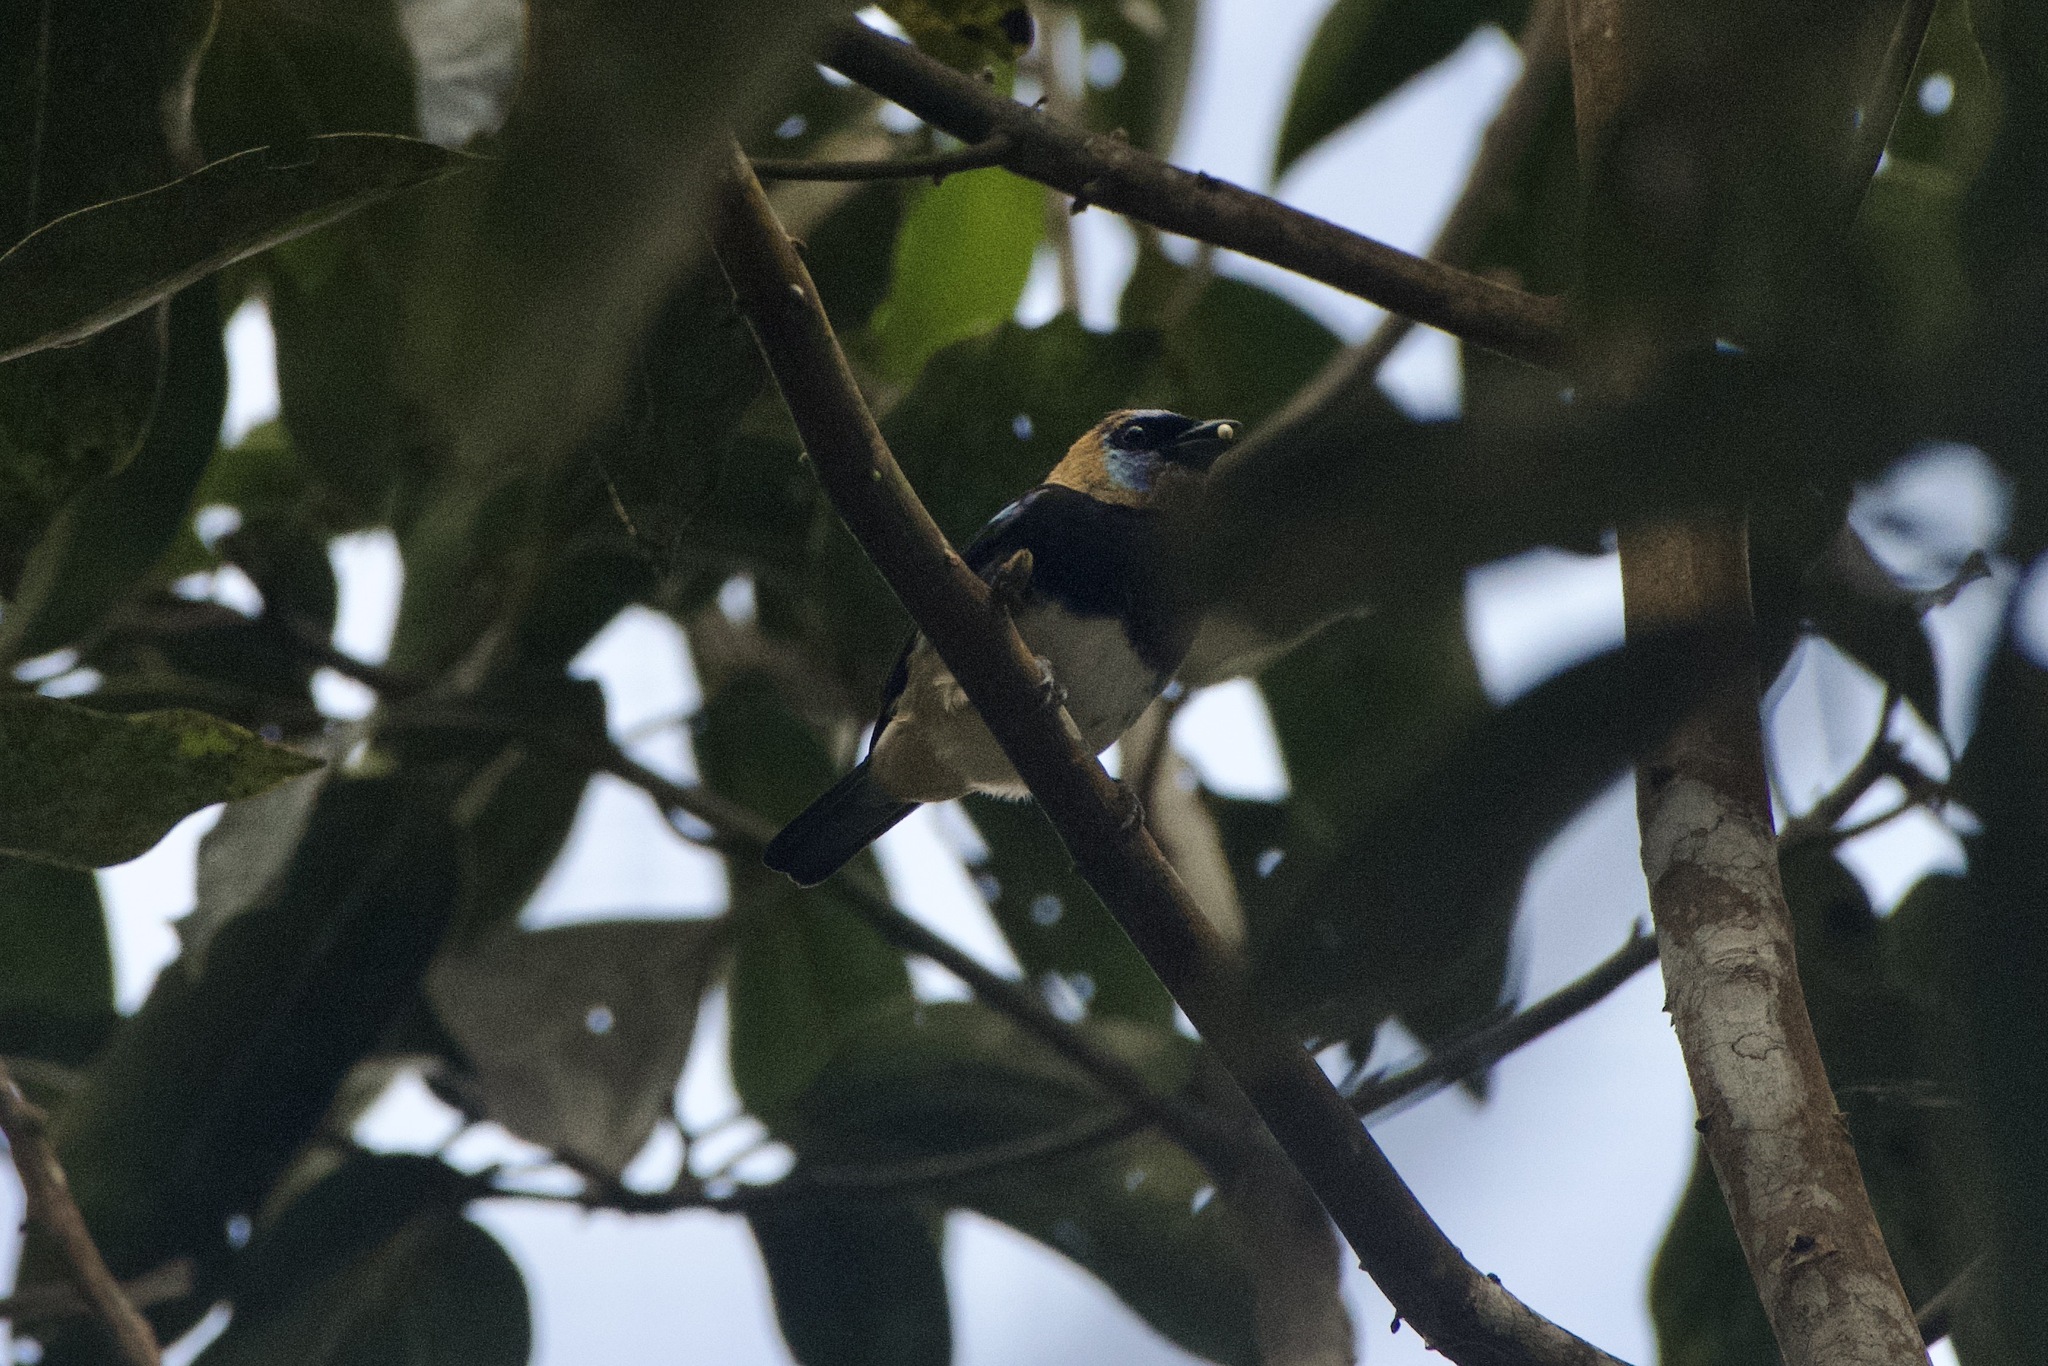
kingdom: Animalia
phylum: Chordata
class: Aves
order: Passeriformes
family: Thraupidae
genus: Stilpnia
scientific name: Stilpnia larvata
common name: Golden-hooded tanager
